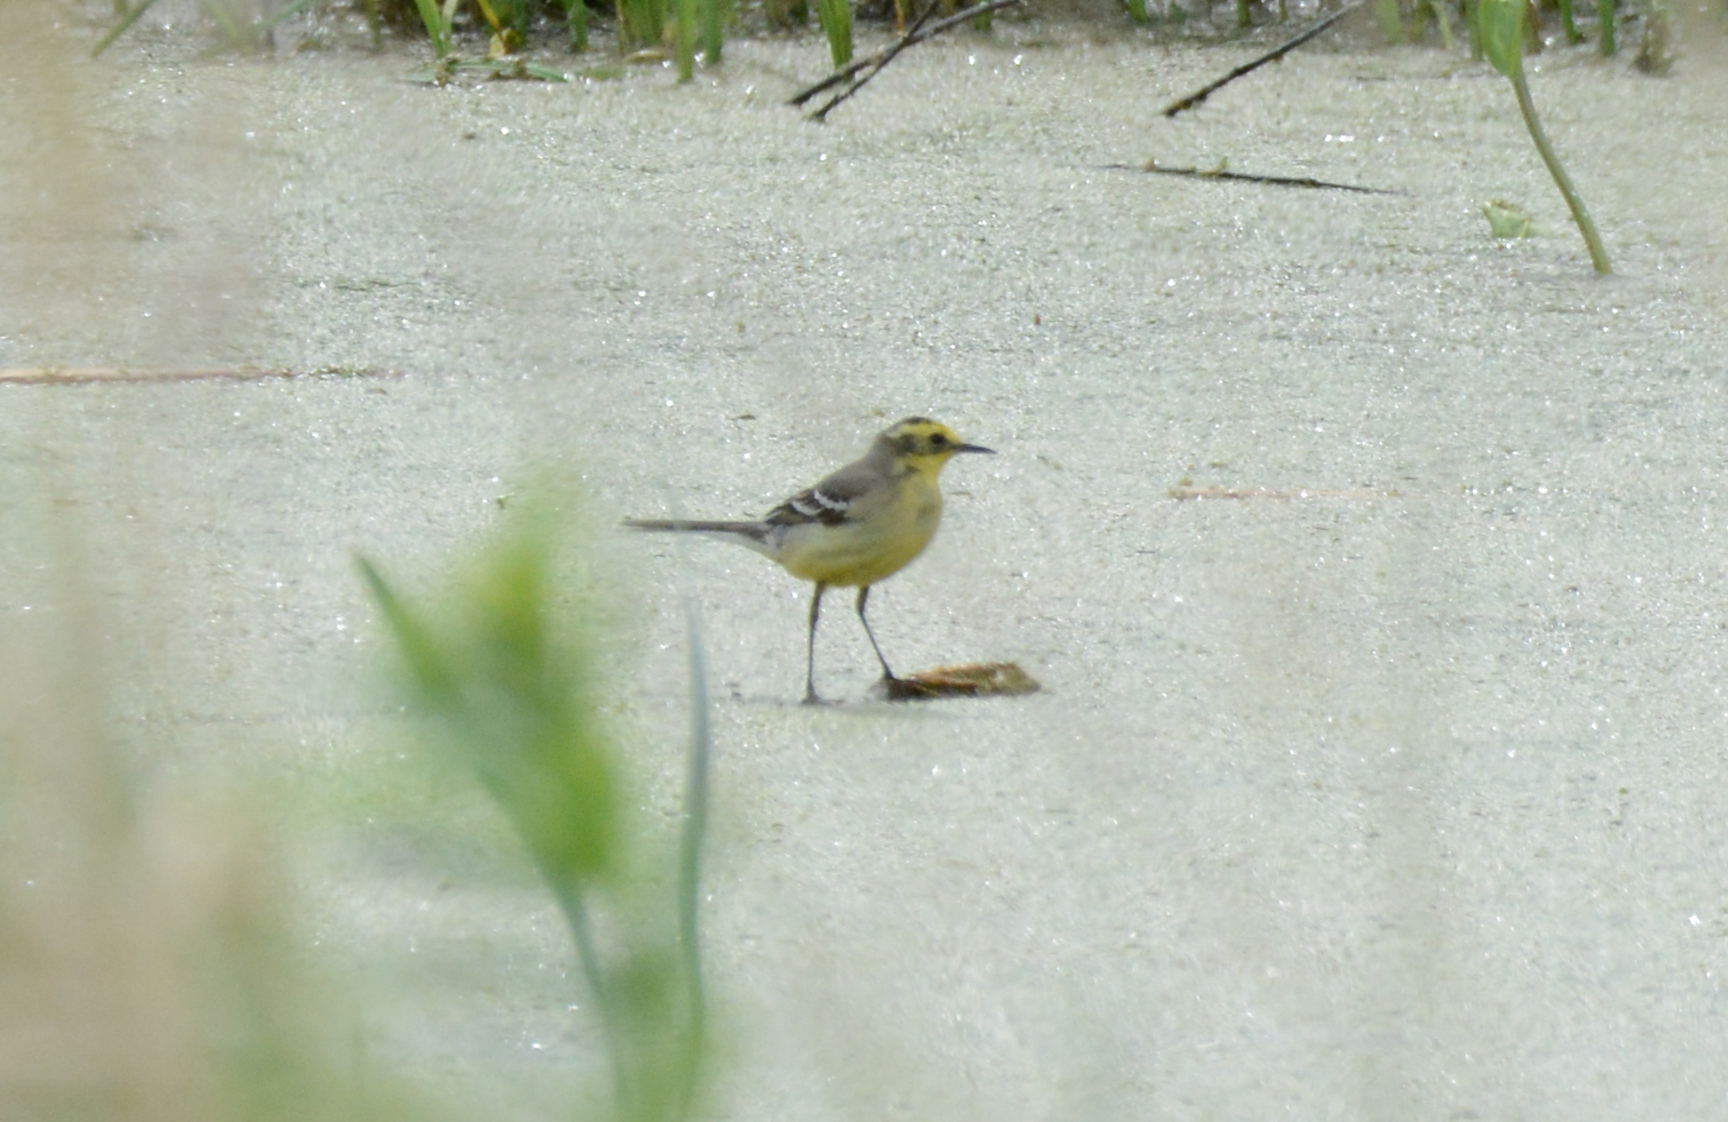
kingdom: Animalia
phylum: Chordata
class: Aves
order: Passeriformes
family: Motacillidae
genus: Motacilla
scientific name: Motacilla citreola
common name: Citrine wagtail
